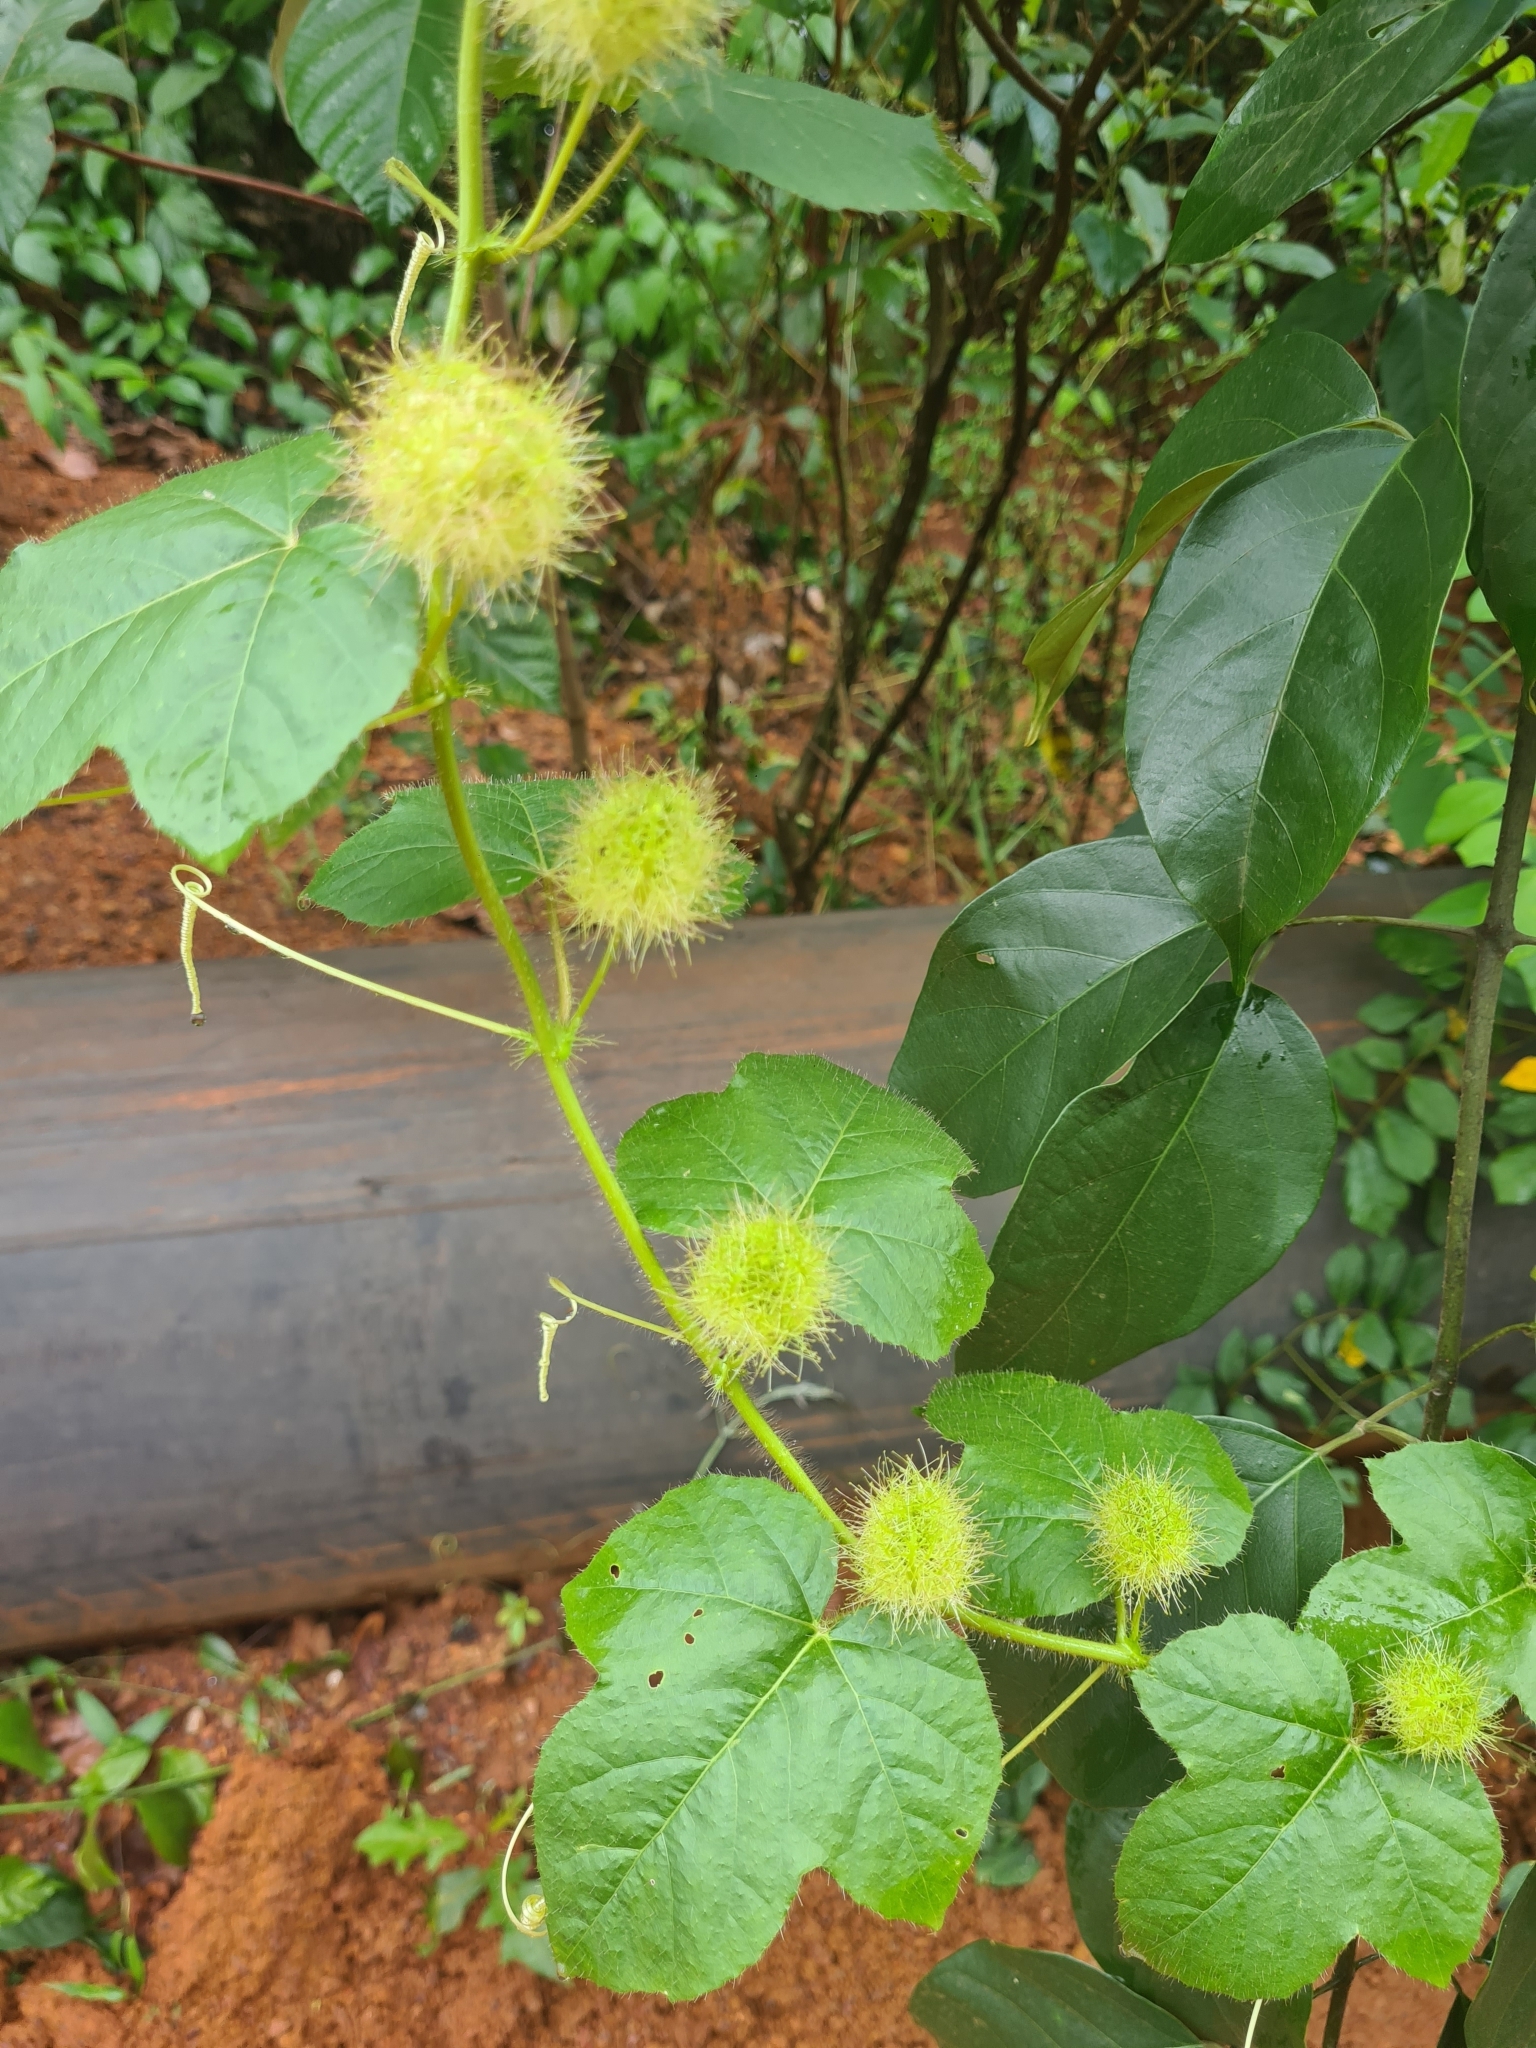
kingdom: Plantae
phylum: Tracheophyta
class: Magnoliopsida
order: Malpighiales
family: Passifloraceae
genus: Passiflora
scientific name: Passiflora vesicaria
